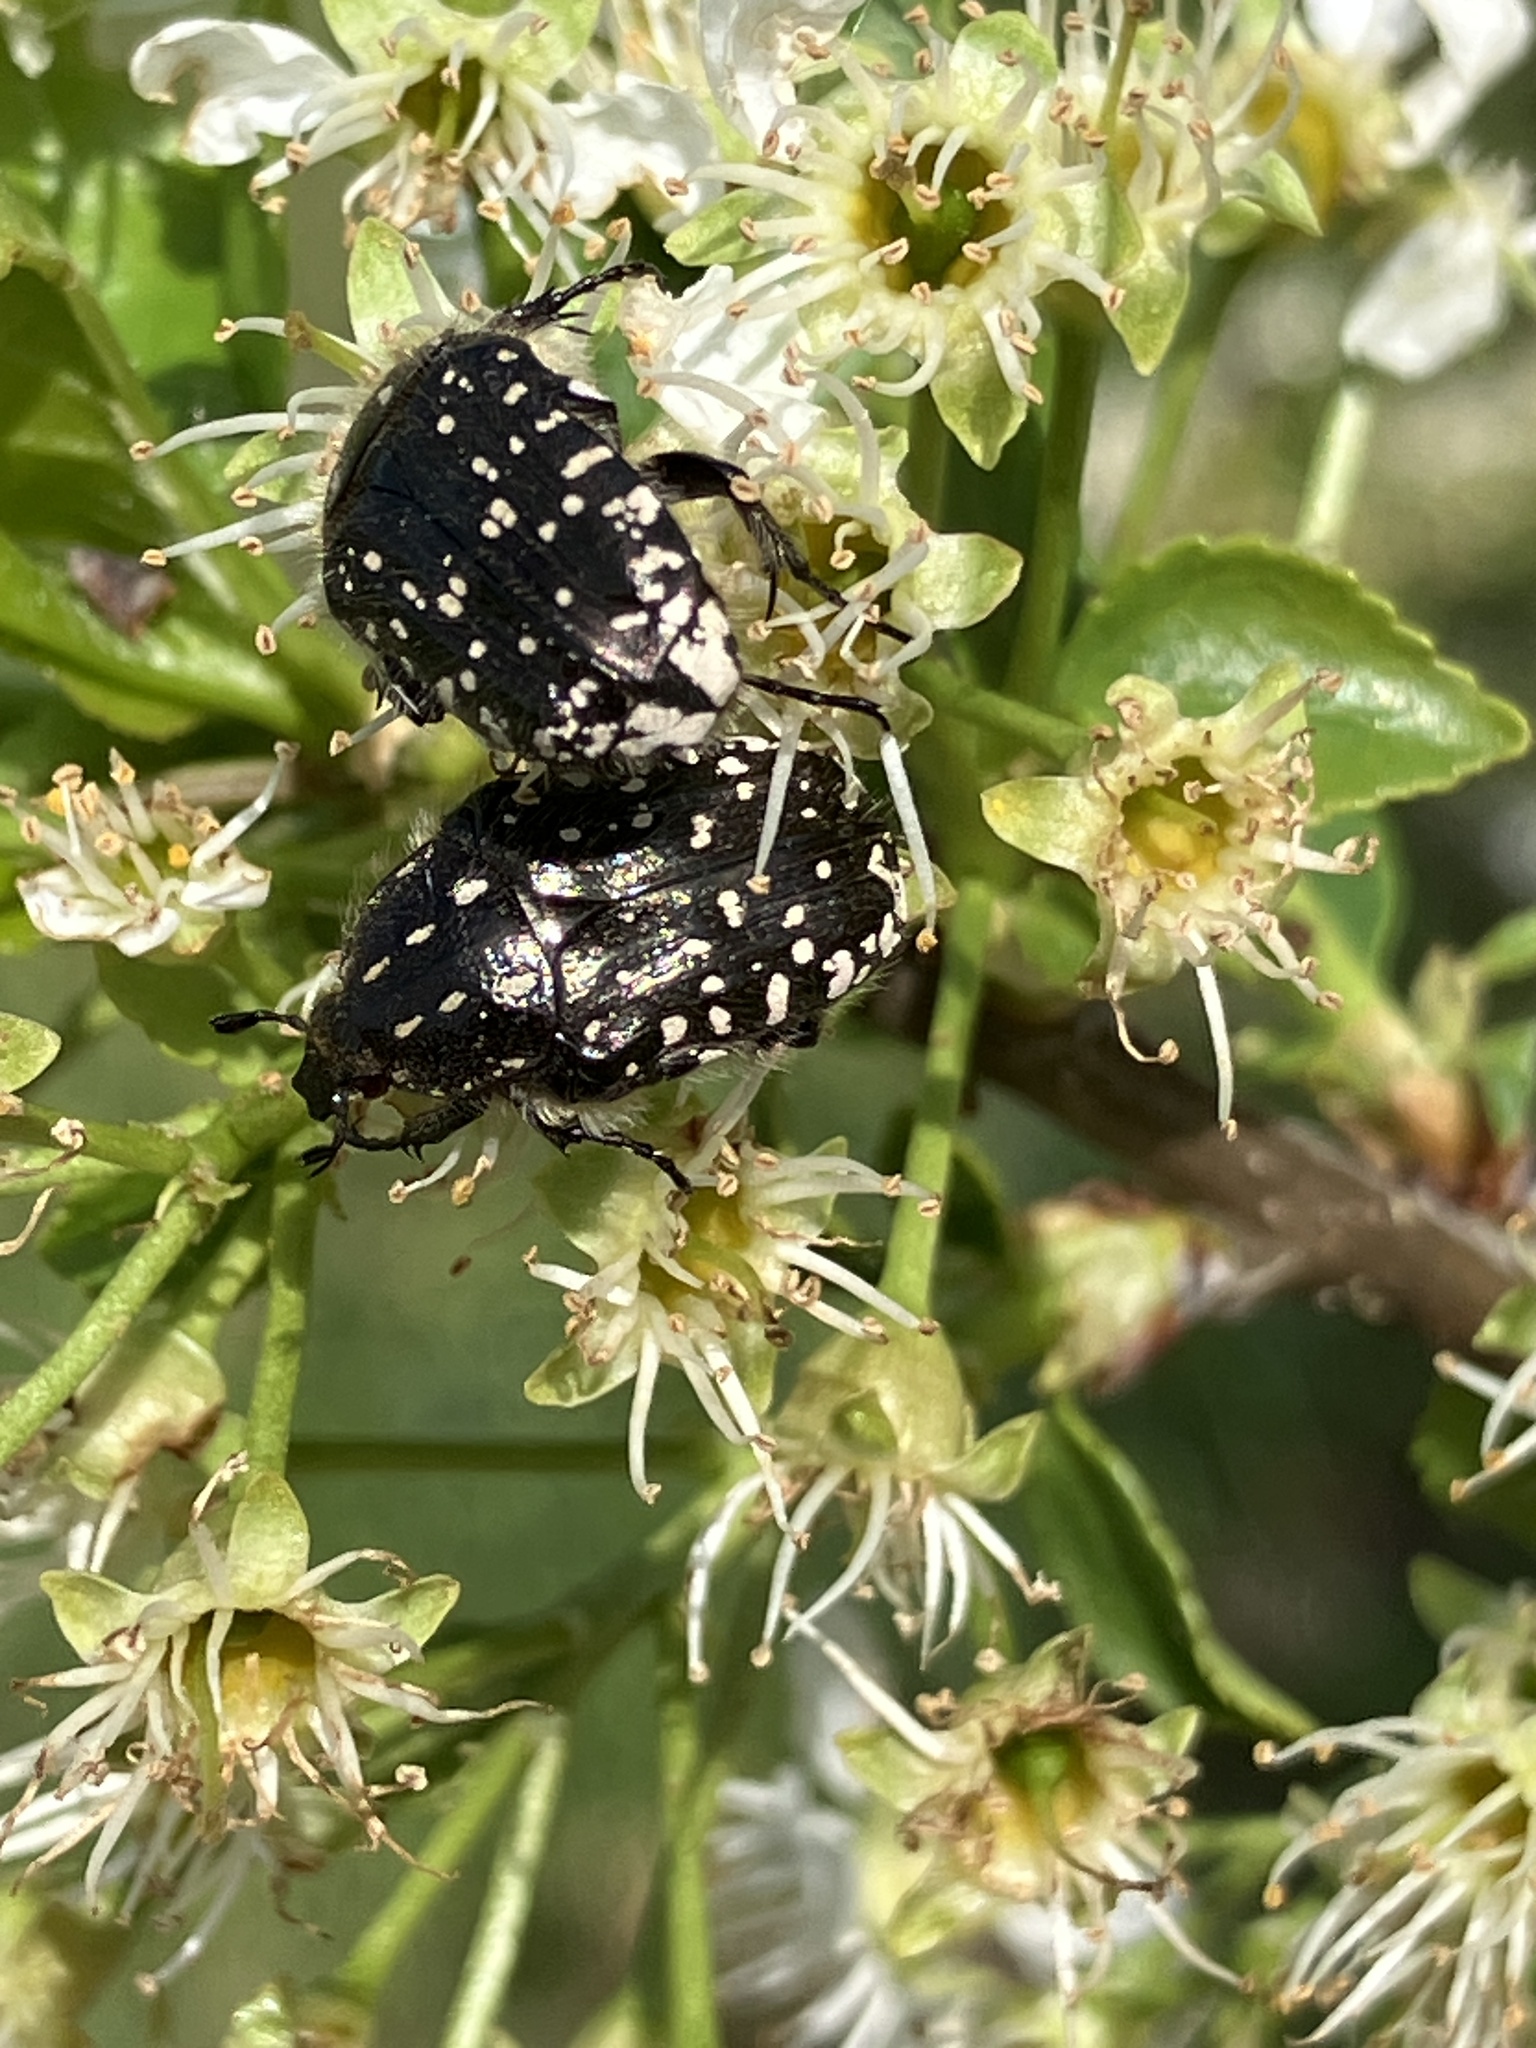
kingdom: Animalia
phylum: Arthropoda
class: Insecta
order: Coleoptera
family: Scarabaeidae
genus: Oxythyrea
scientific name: Oxythyrea funesta
